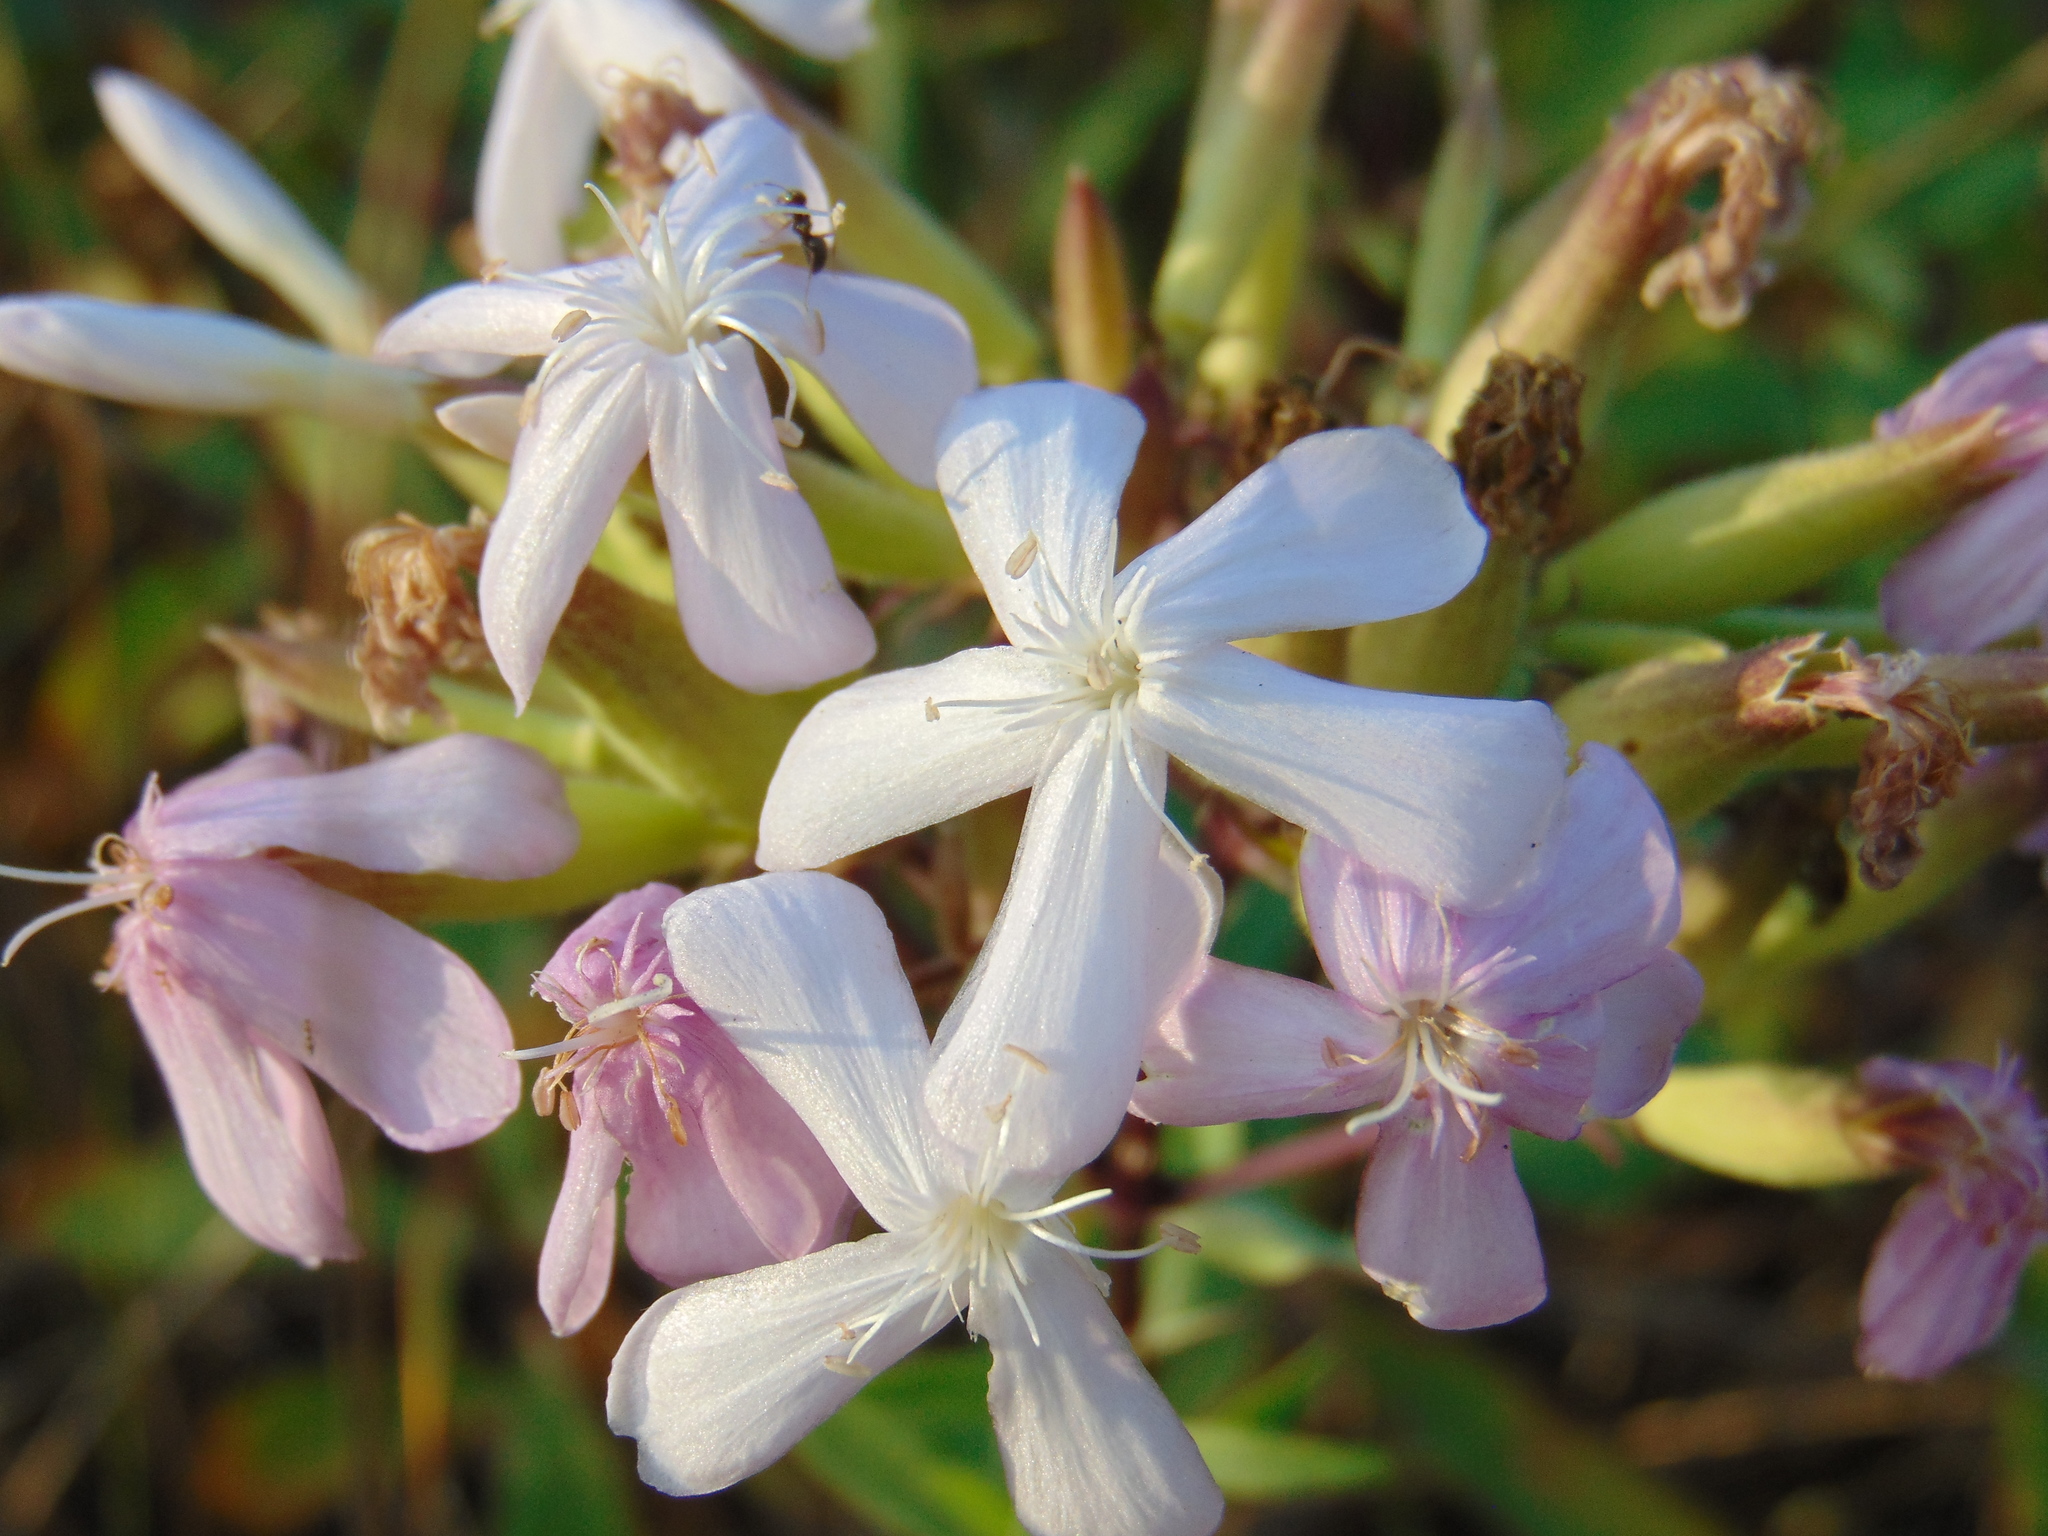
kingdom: Plantae
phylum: Tracheophyta
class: Magnoliopsida
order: Caryophyllales
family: Caryophyllaceae
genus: Saponaria
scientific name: Saponaria officinalis
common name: Soapwort
